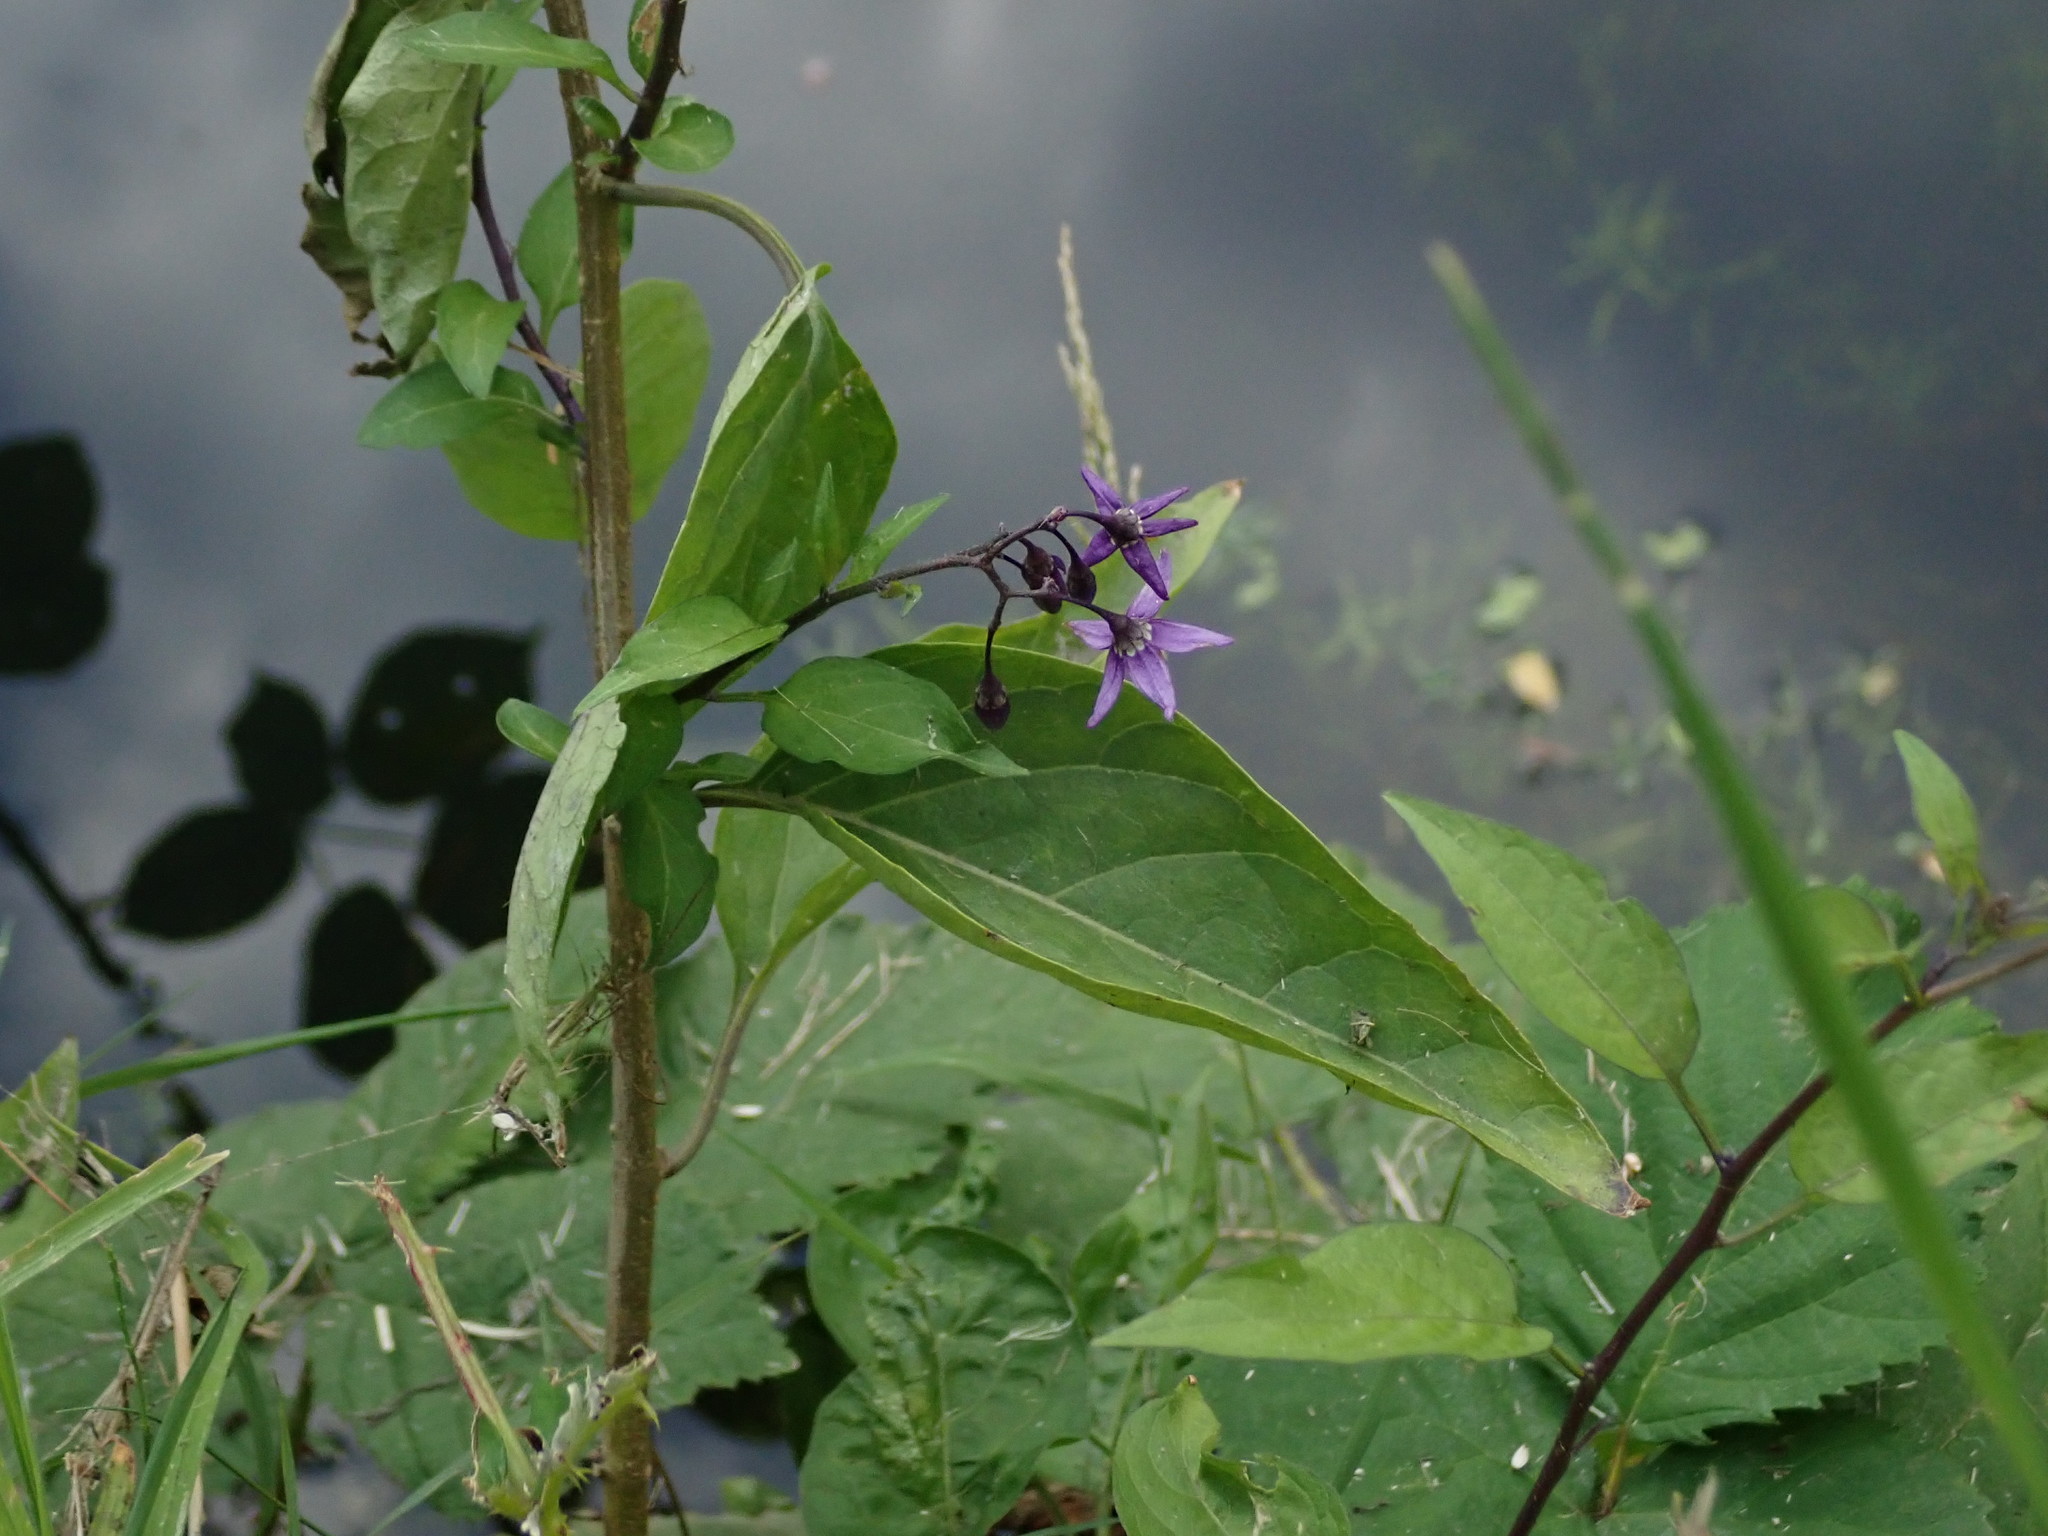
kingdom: Plantae
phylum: Tracheophyta
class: Magnoliopsida
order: Solanales
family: Solanaceae
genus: Solanum
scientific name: Solanum dulcamara
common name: Climbing nightshade
